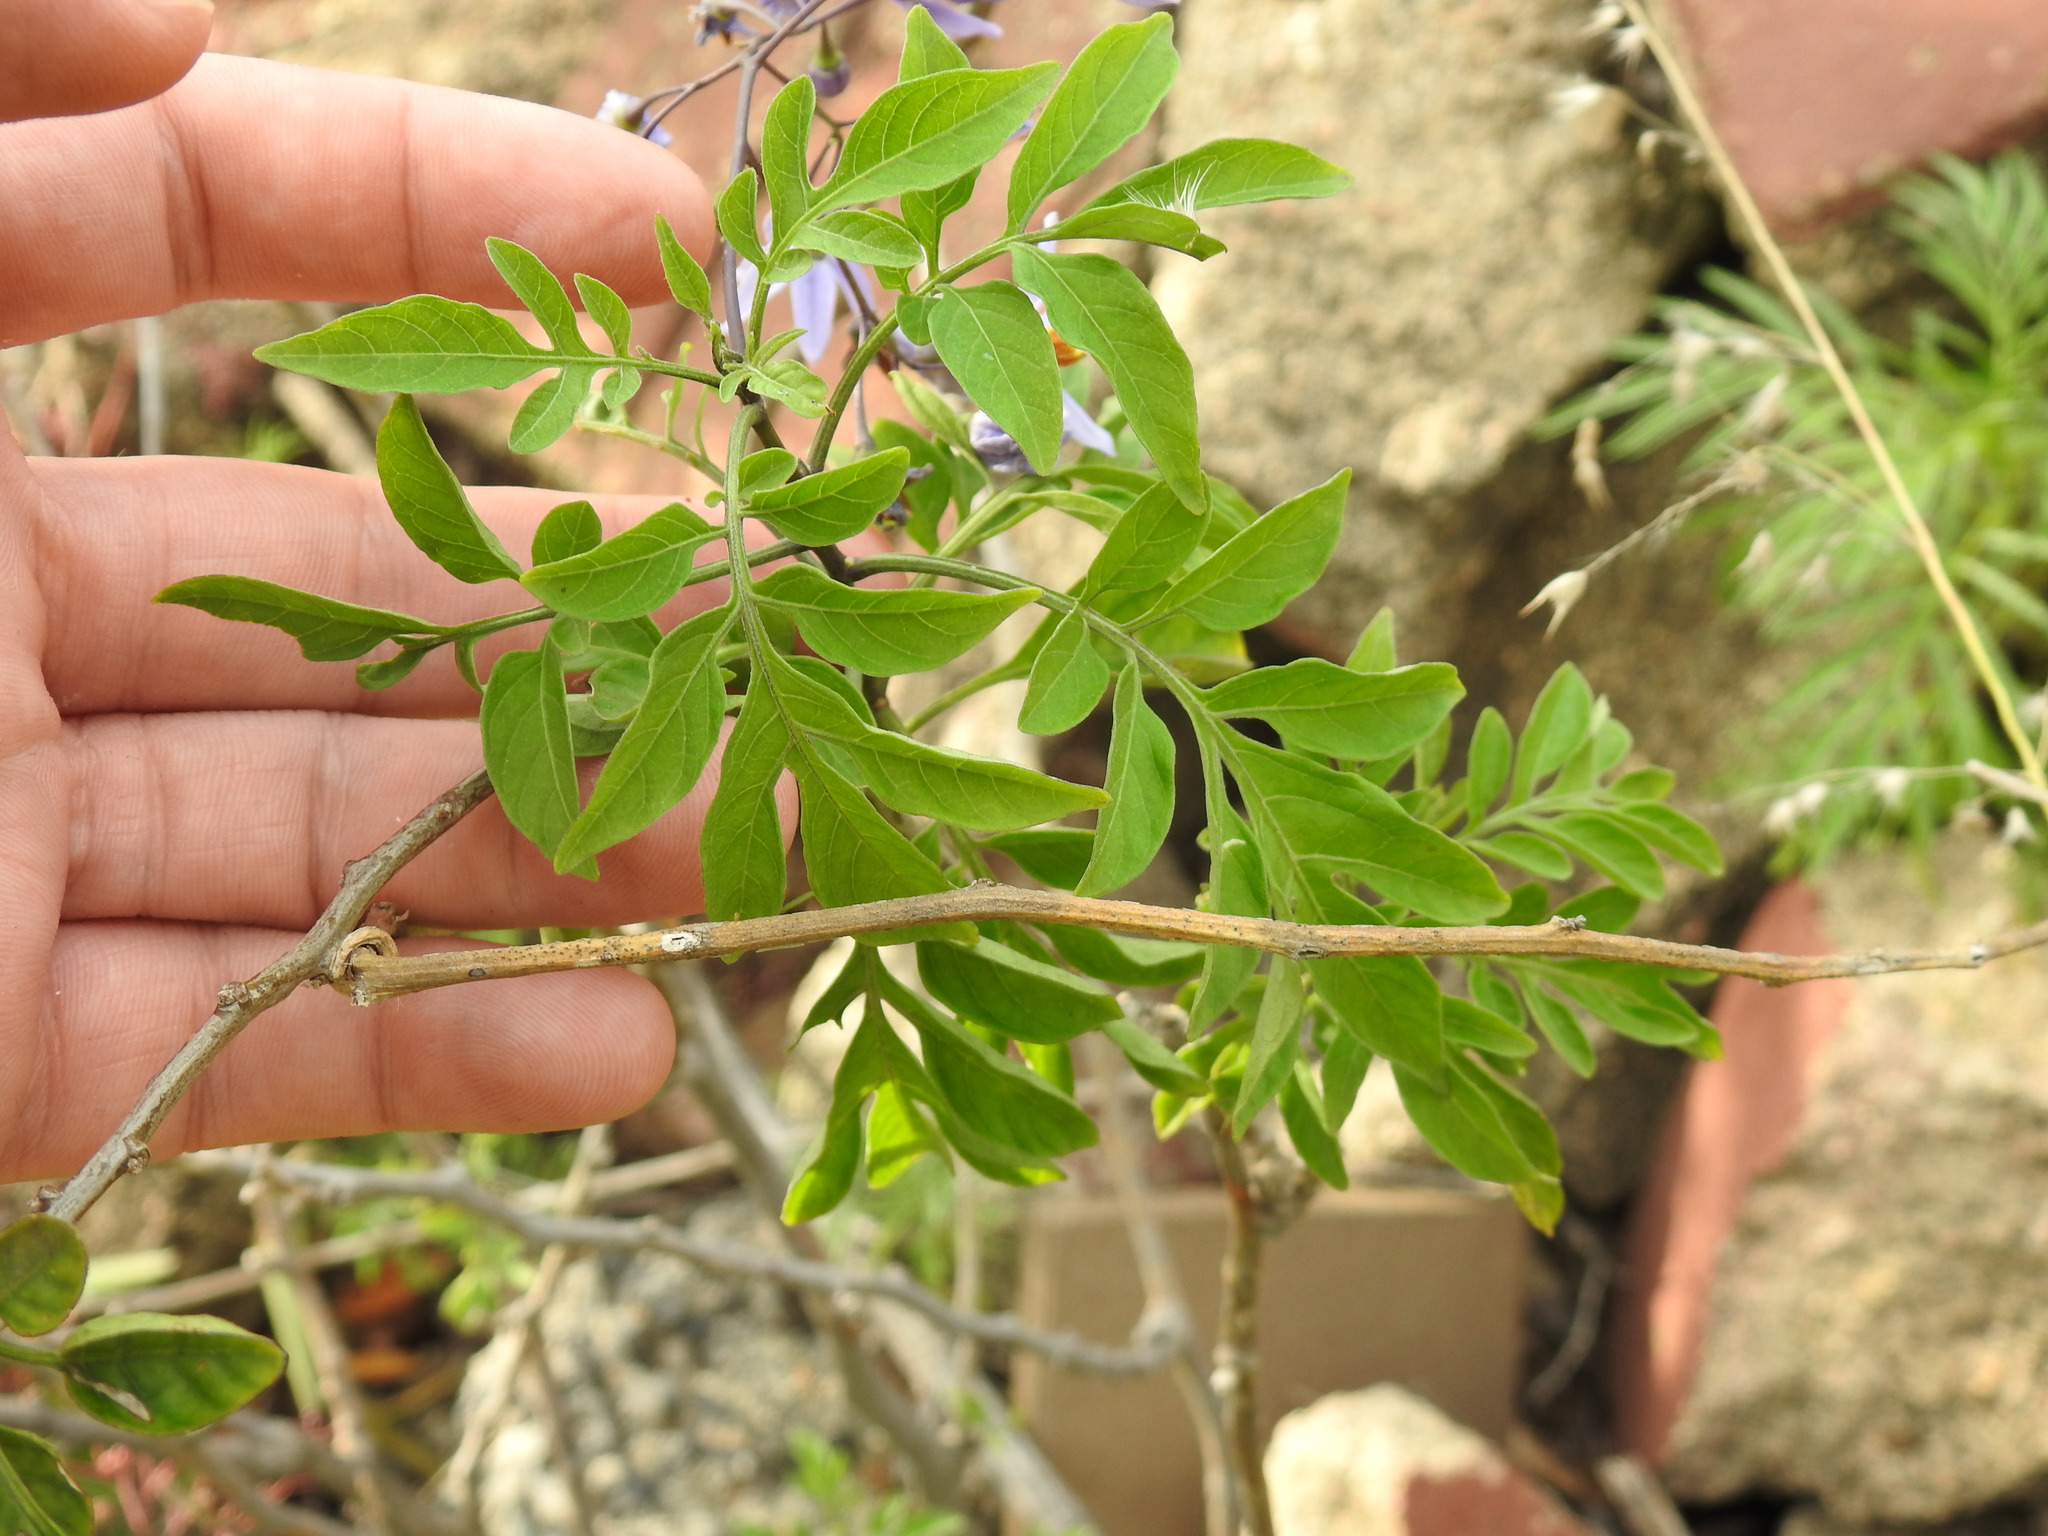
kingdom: Plantae
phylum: Tracheophyta
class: Magnoliopsida
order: Solanales
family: Solanaceae
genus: Solanum
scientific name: Solanum seaforthianum
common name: Brazilian nightshade
